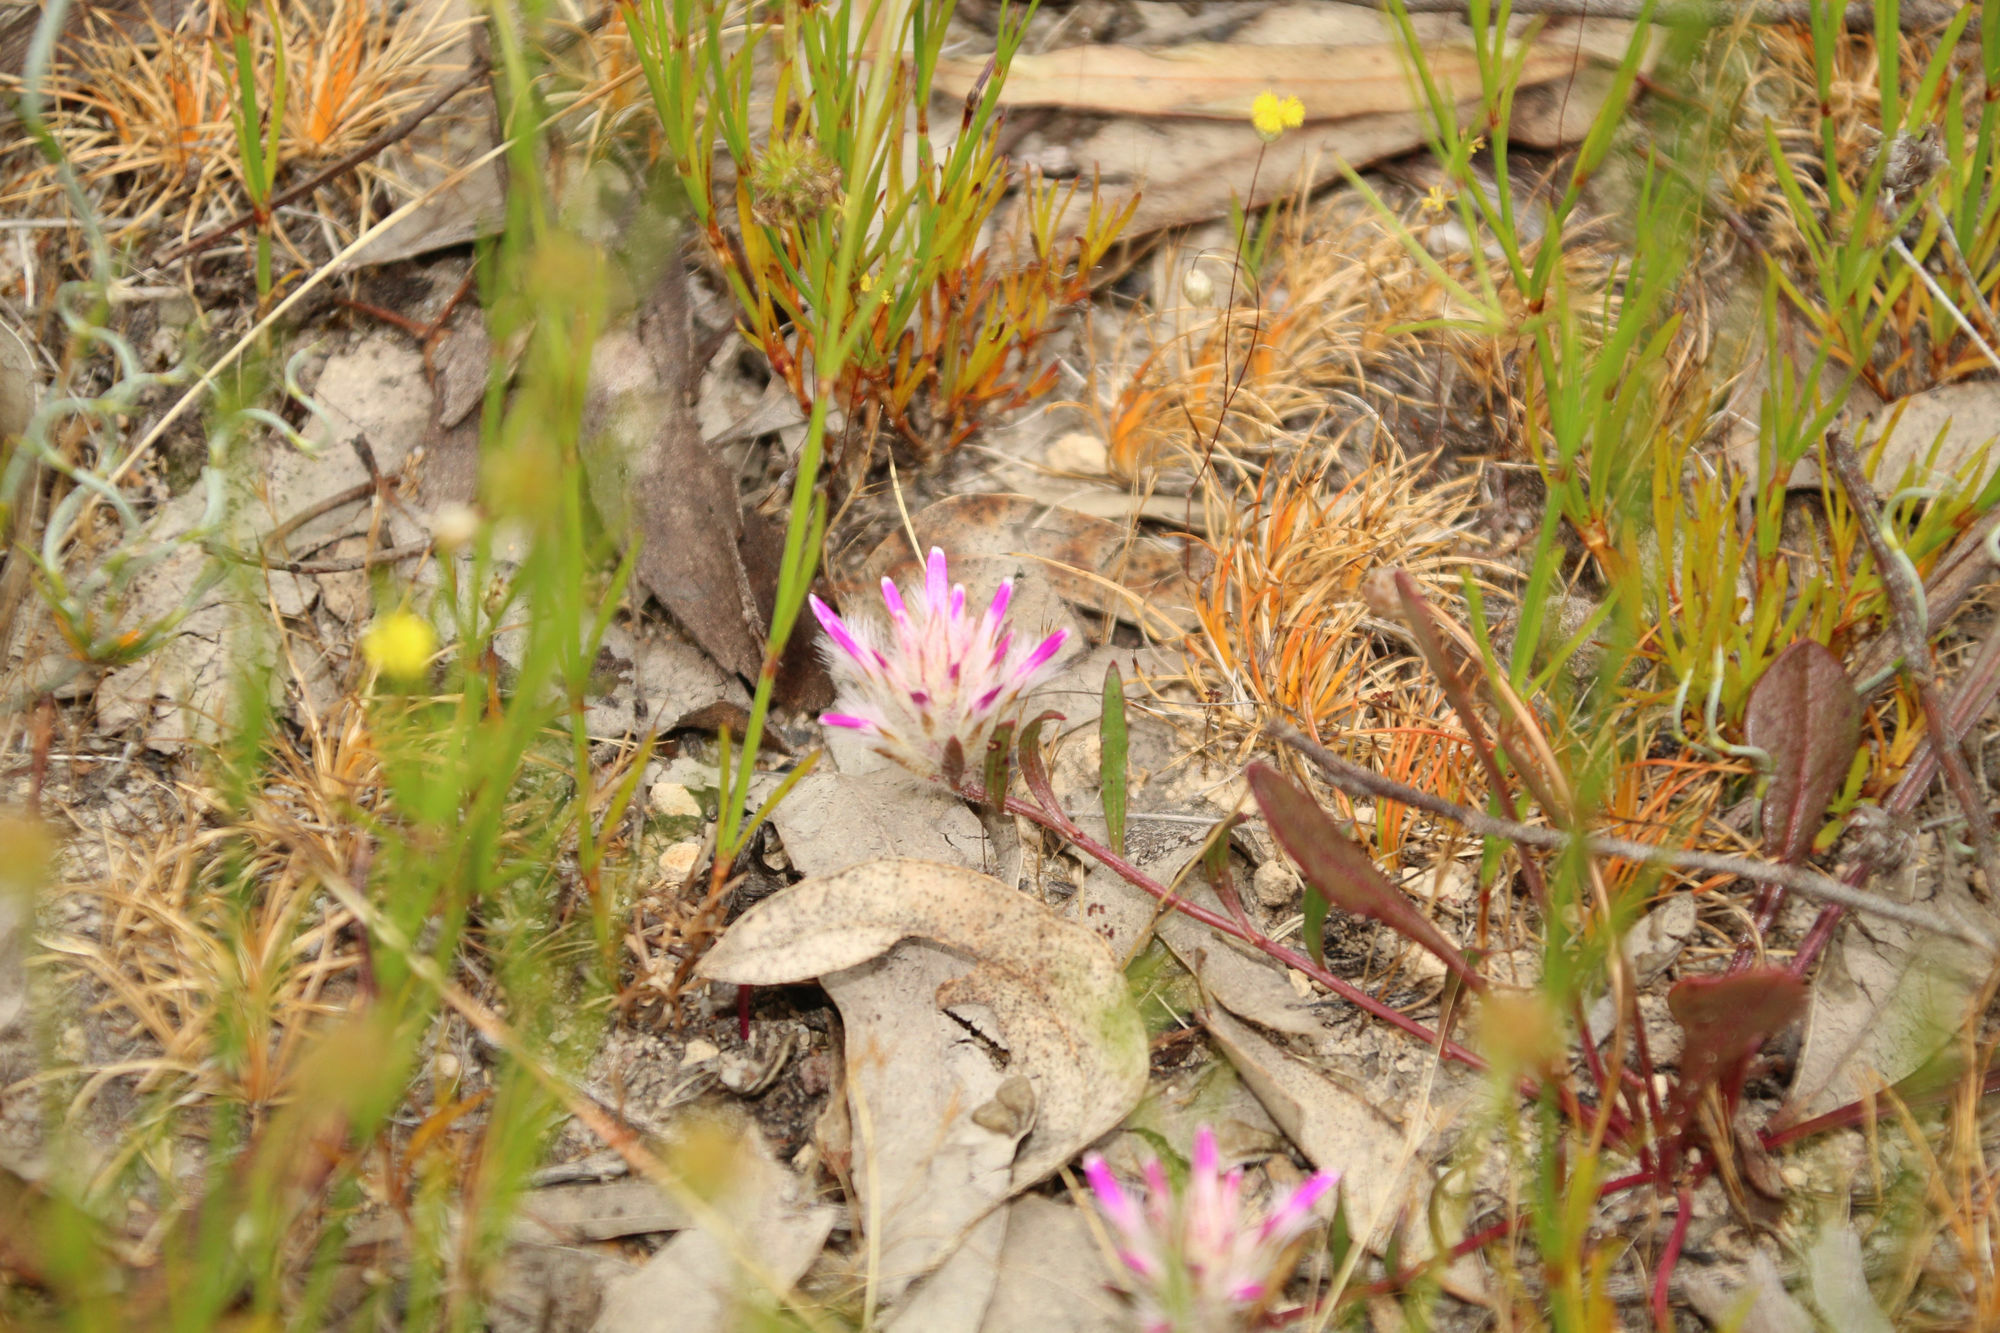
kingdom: Plantae
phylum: Tracheophyta
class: Magnoliopsida
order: Caryophyllales
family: Amaranthaceae
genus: Ptilotus
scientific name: Ptilotus manglesii
